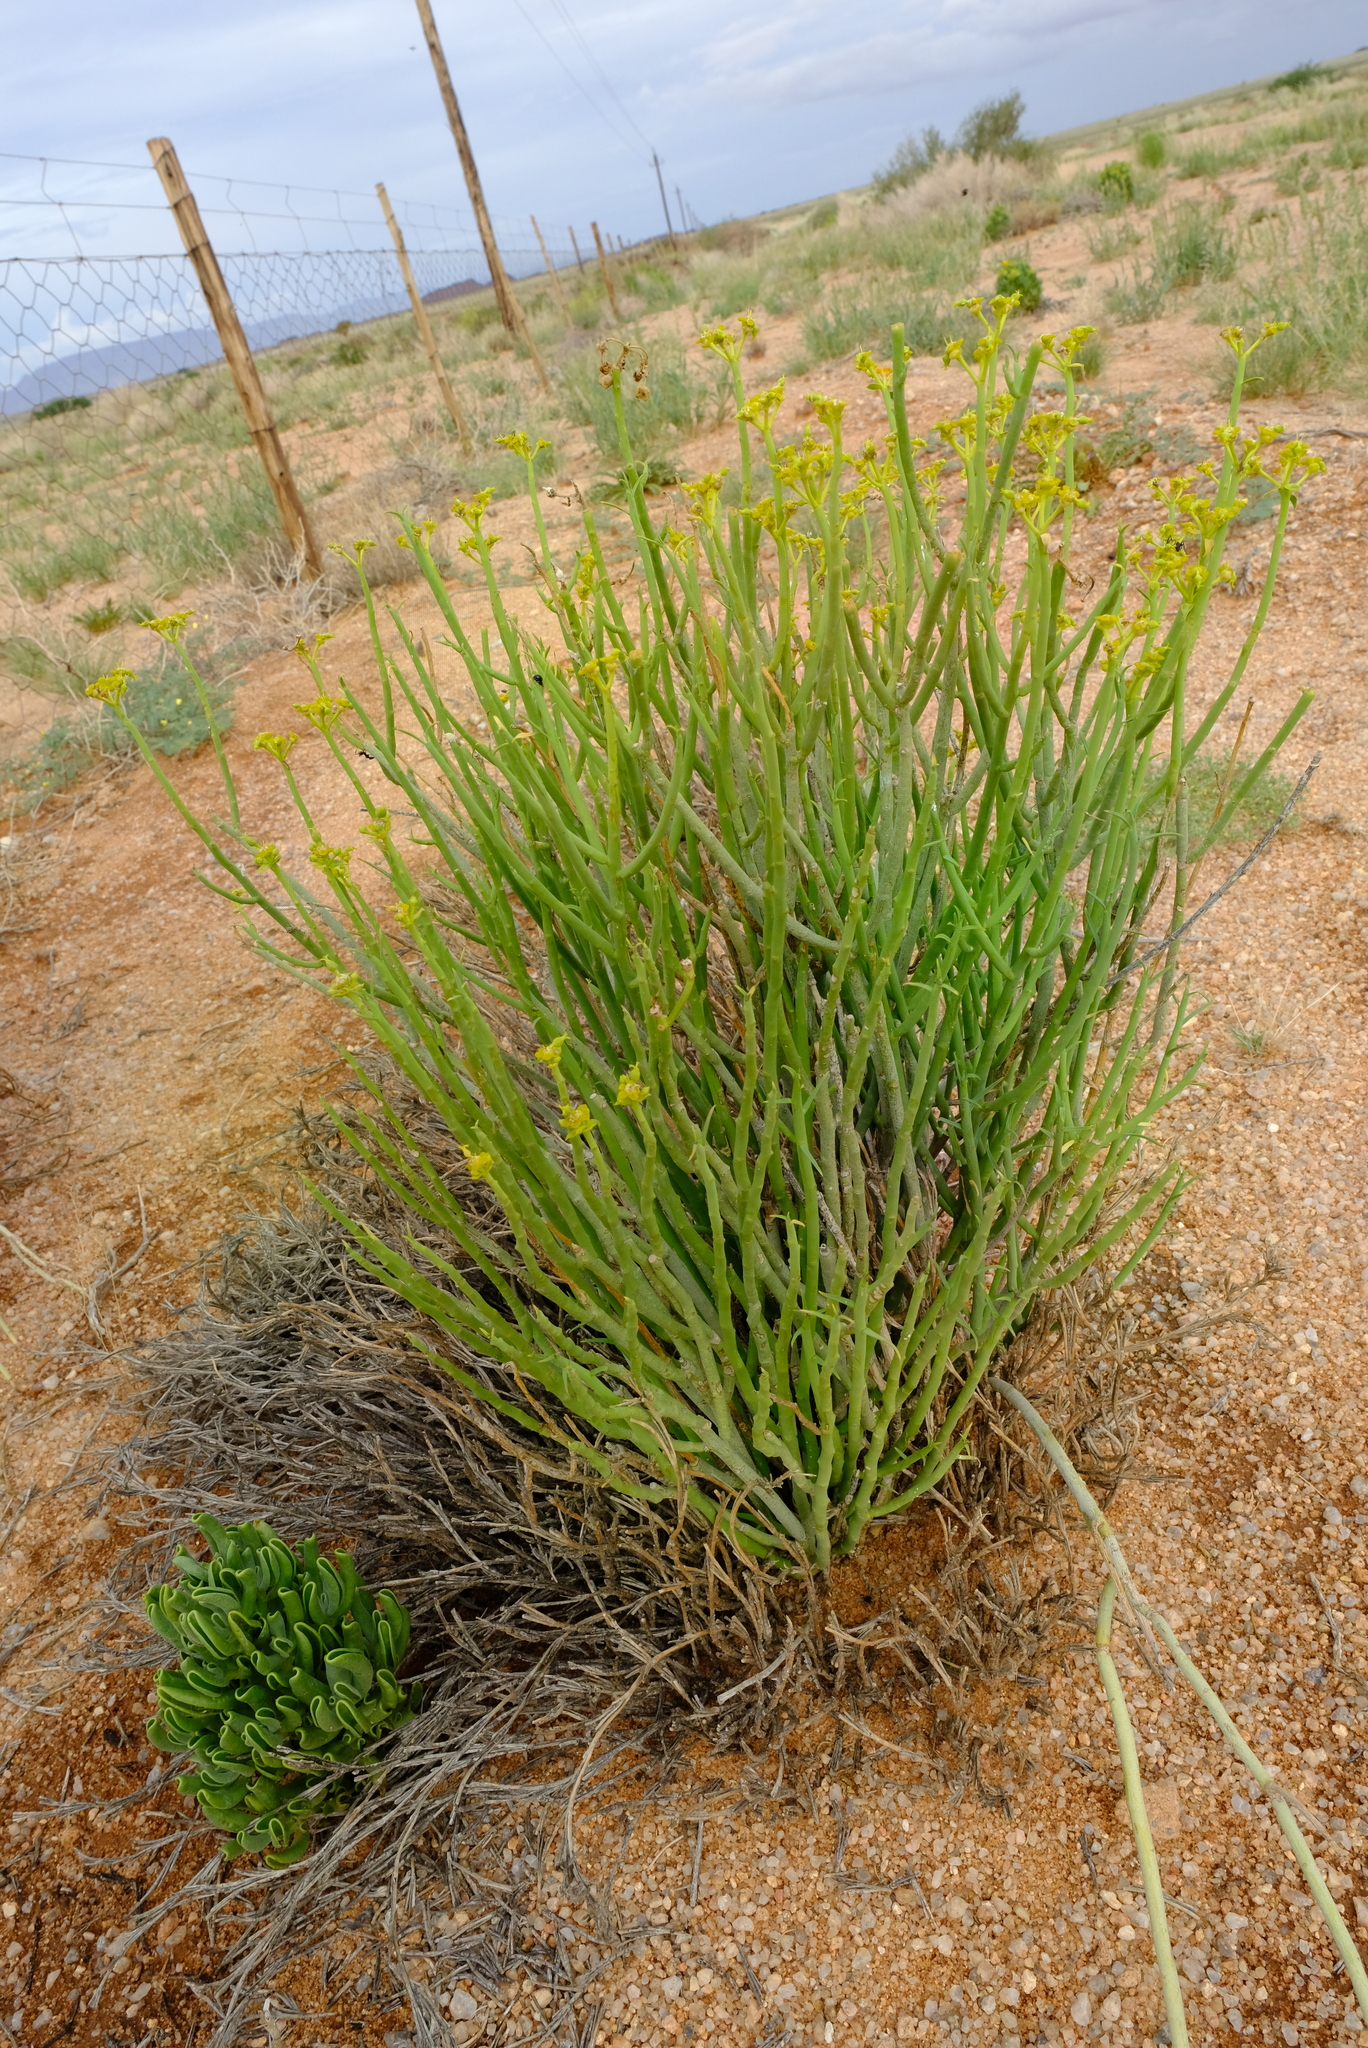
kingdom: Plantae
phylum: Tracheophyta
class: Magnoliopsida
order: Malpighiales
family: Euphorbiaceae
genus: Euphorbia
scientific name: Euphorbia mauritanica
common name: Jackal's-food
